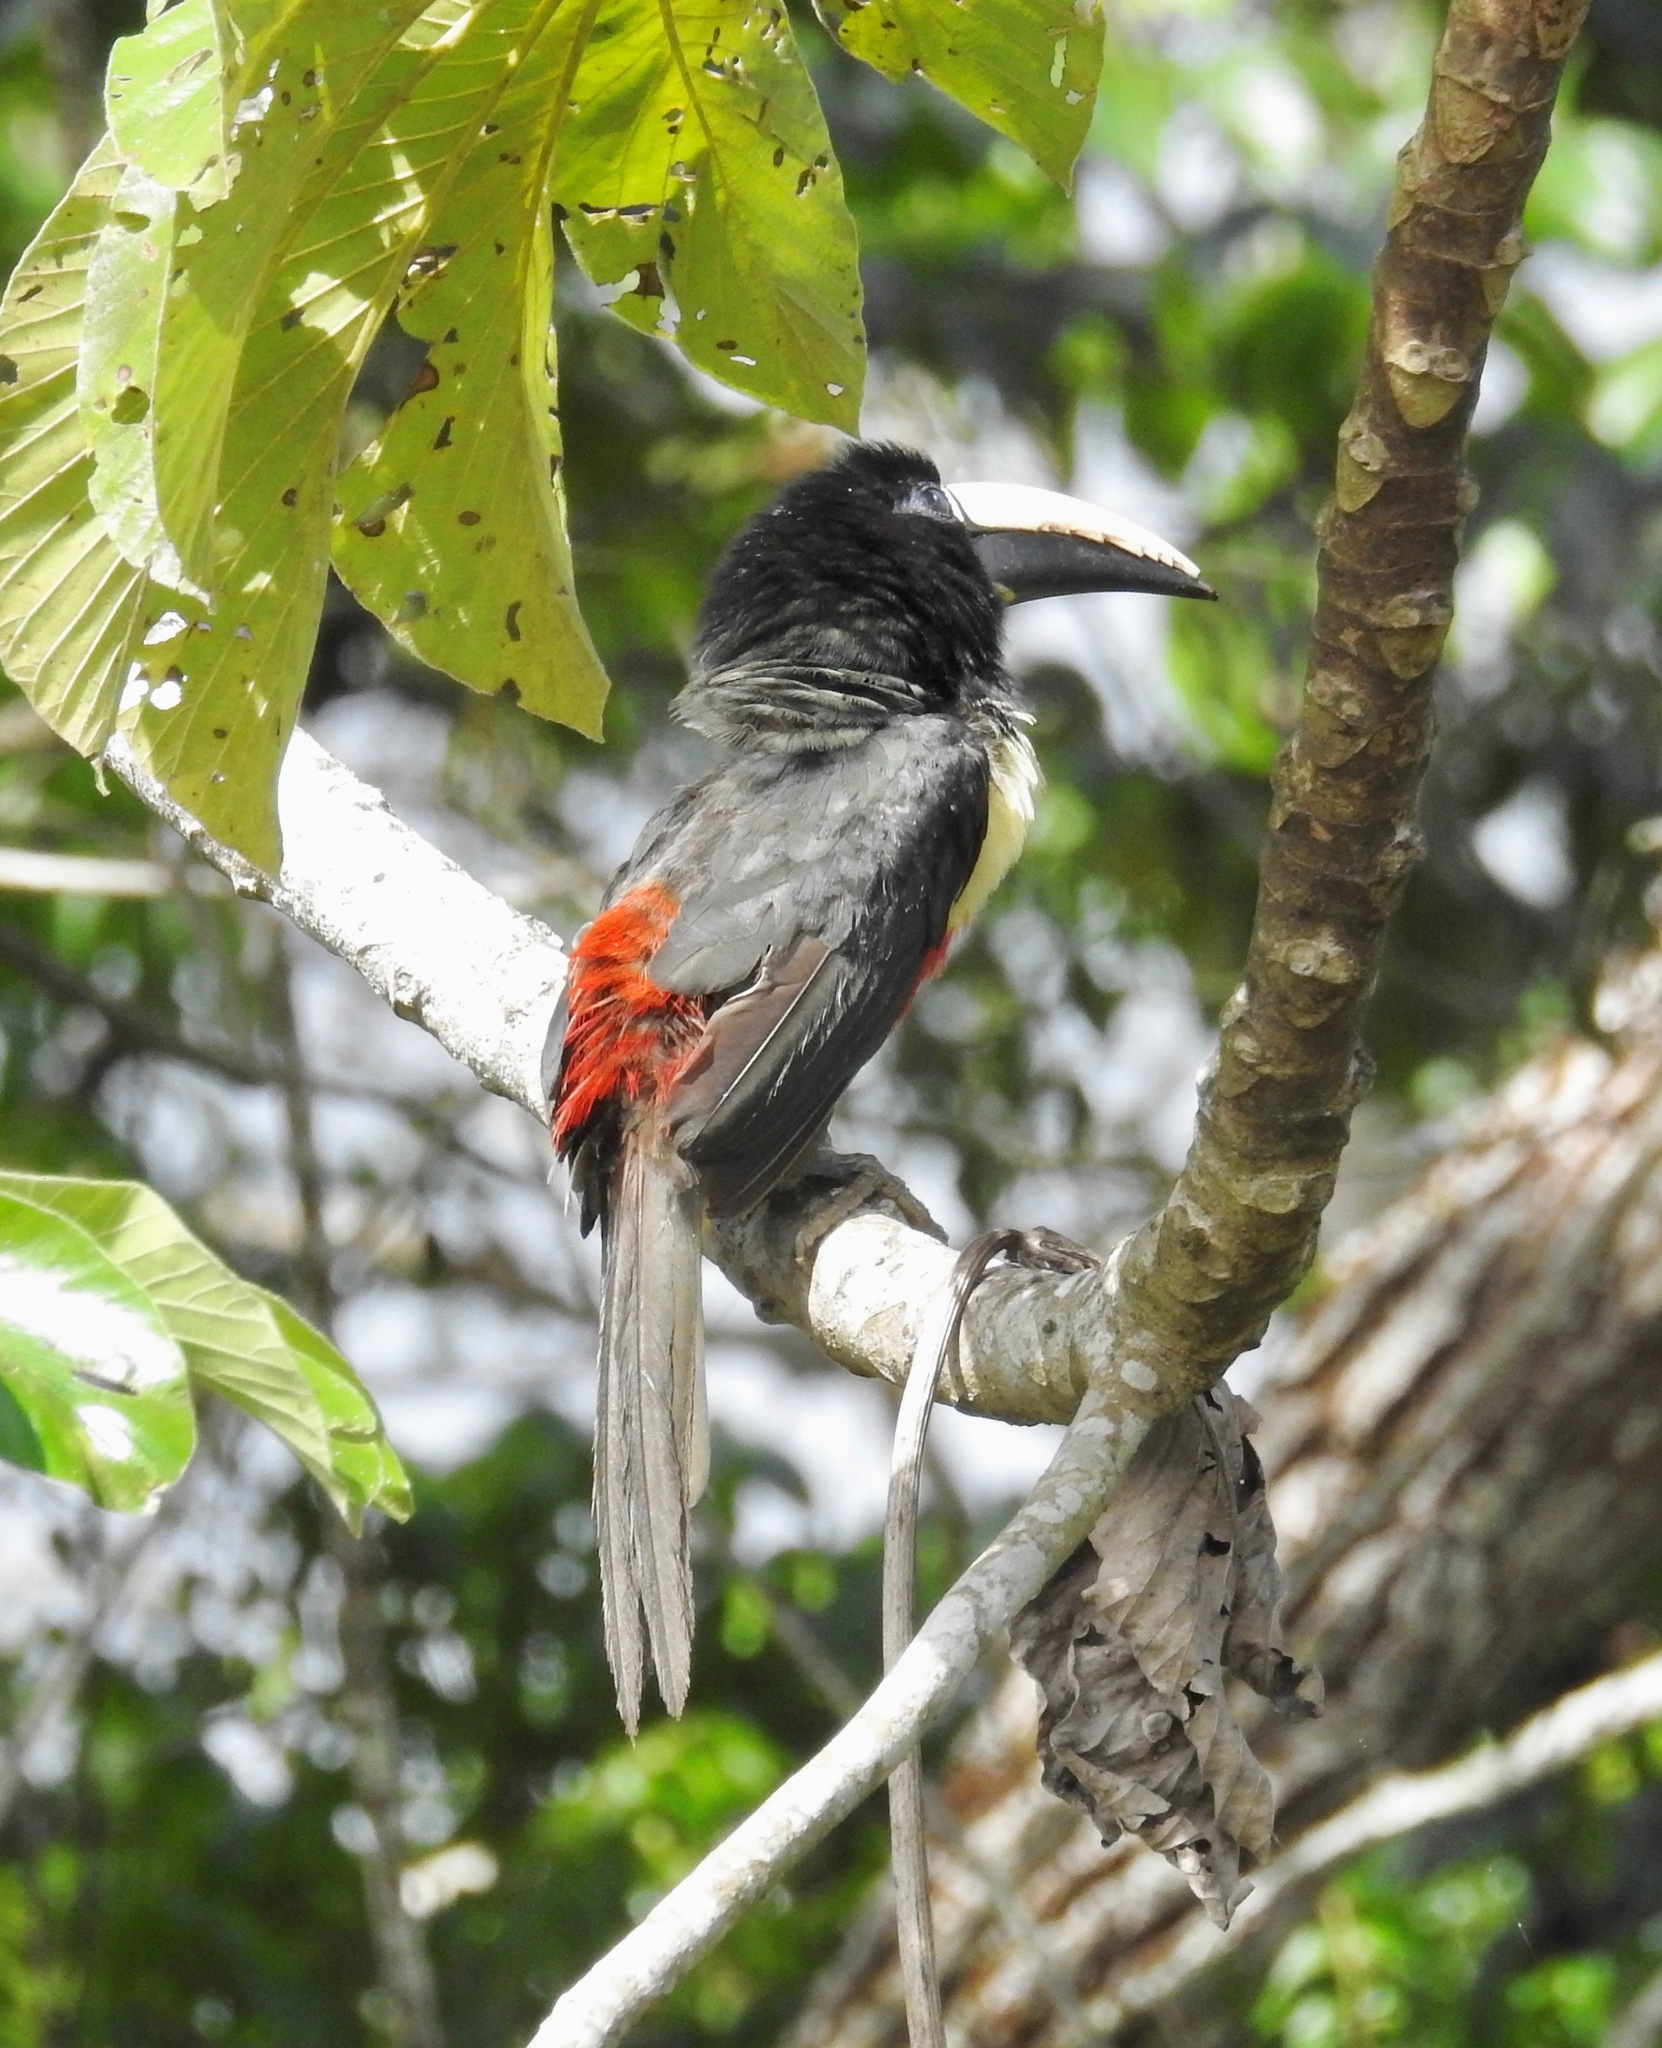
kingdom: Animalia
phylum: Chordata
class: Aves
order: Piciformes
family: Ramphastidae
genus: Pteroglossus
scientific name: Pteroglossus aracari
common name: Black-necked aracari
